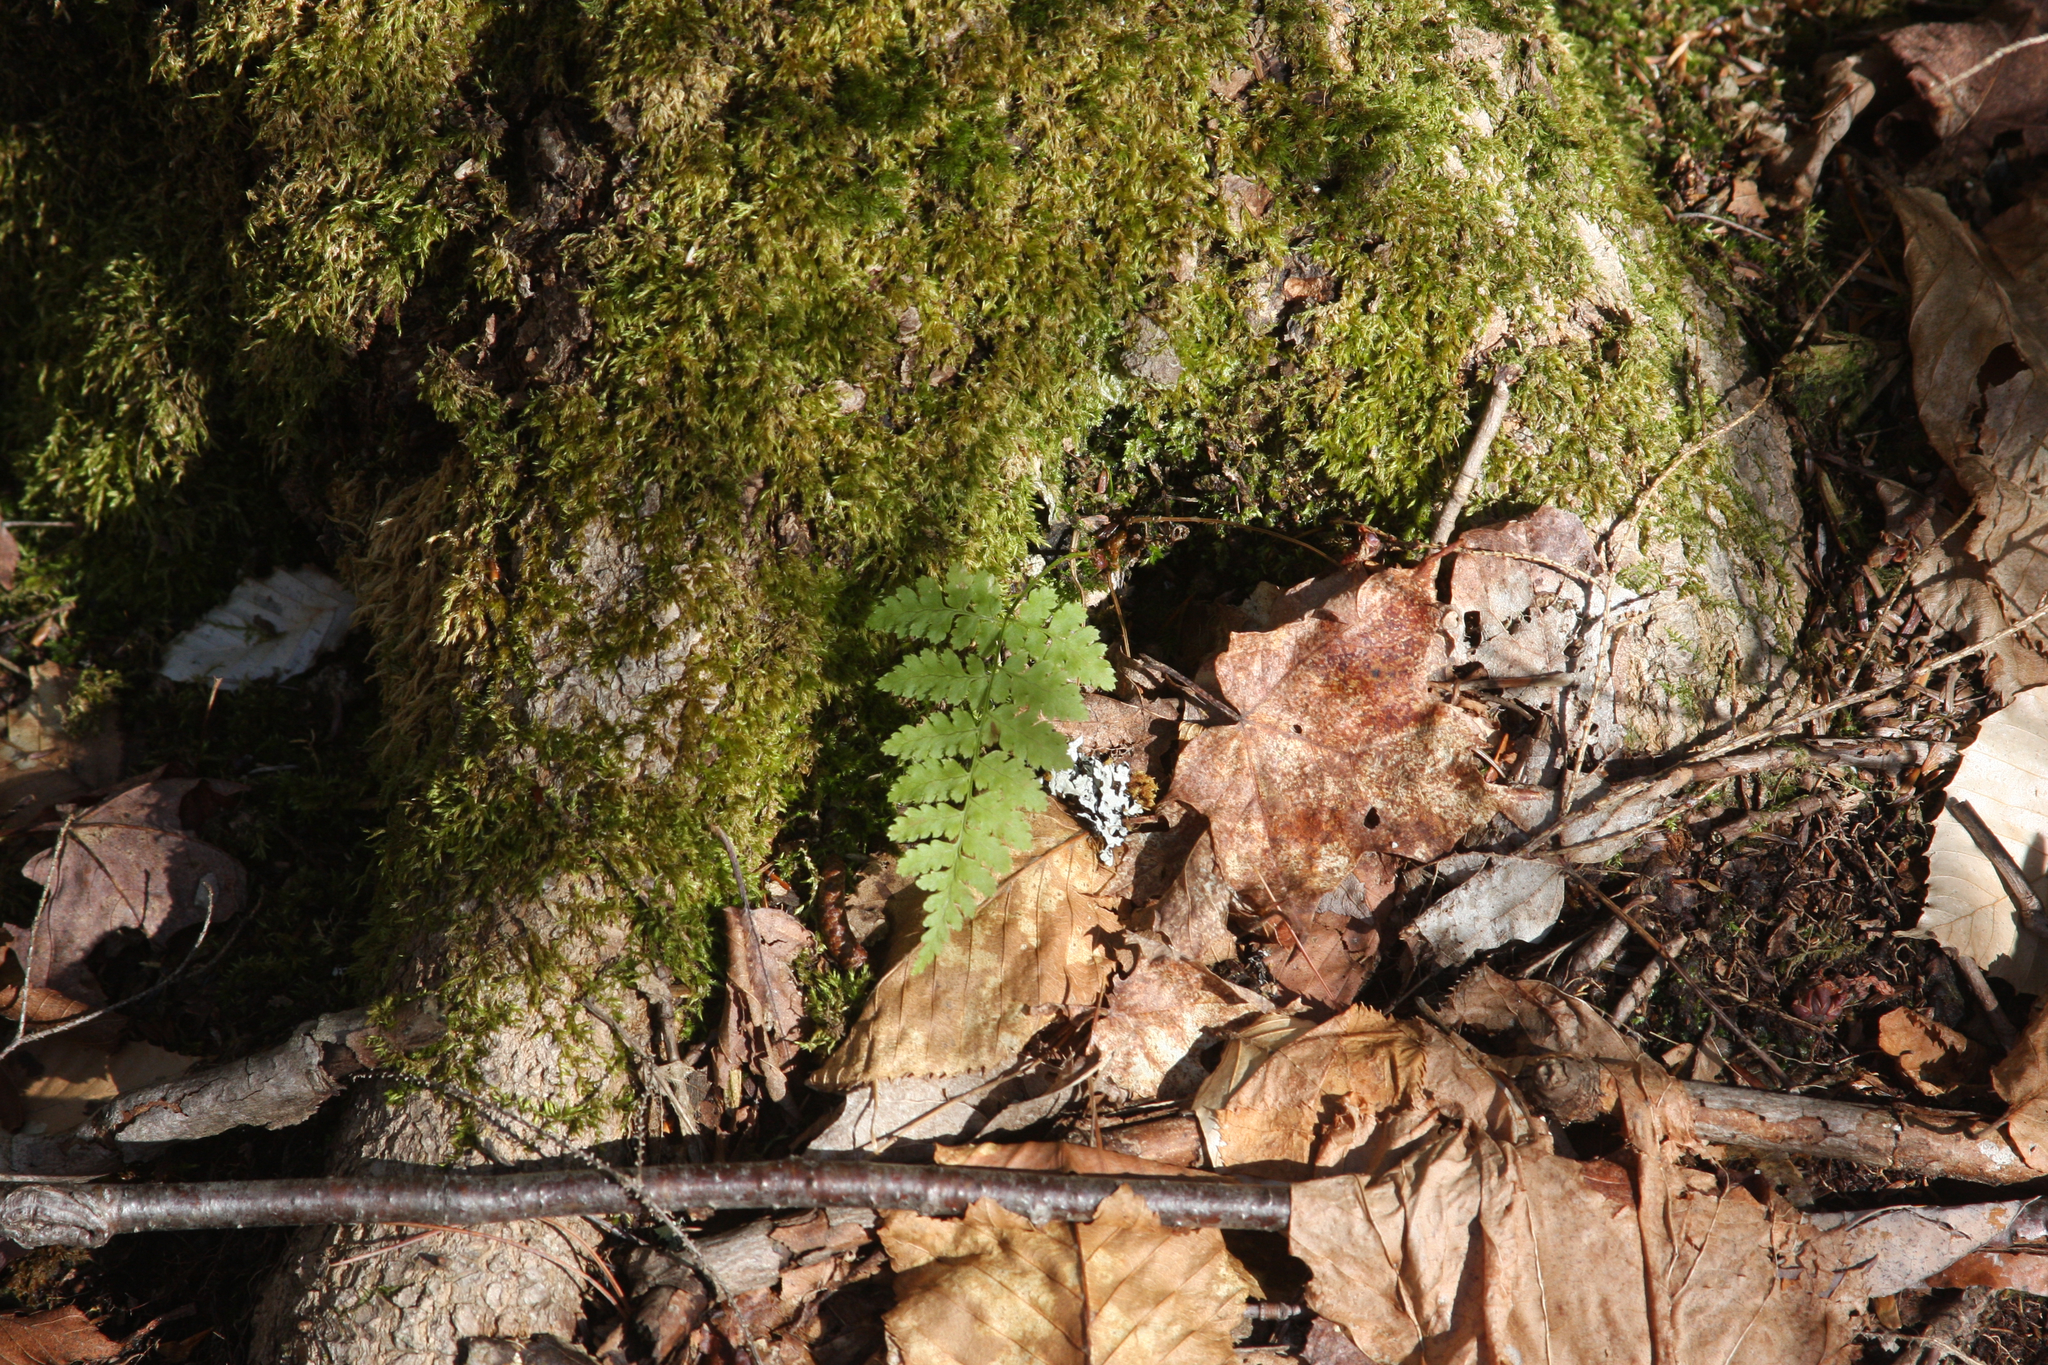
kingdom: Plantae
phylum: Tracheophyta
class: Polypodiopsida
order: Polypodiales
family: Dryopteridaceae
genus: Dryopteris
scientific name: Dryopteris intermedia
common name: Evergreen wood fern
